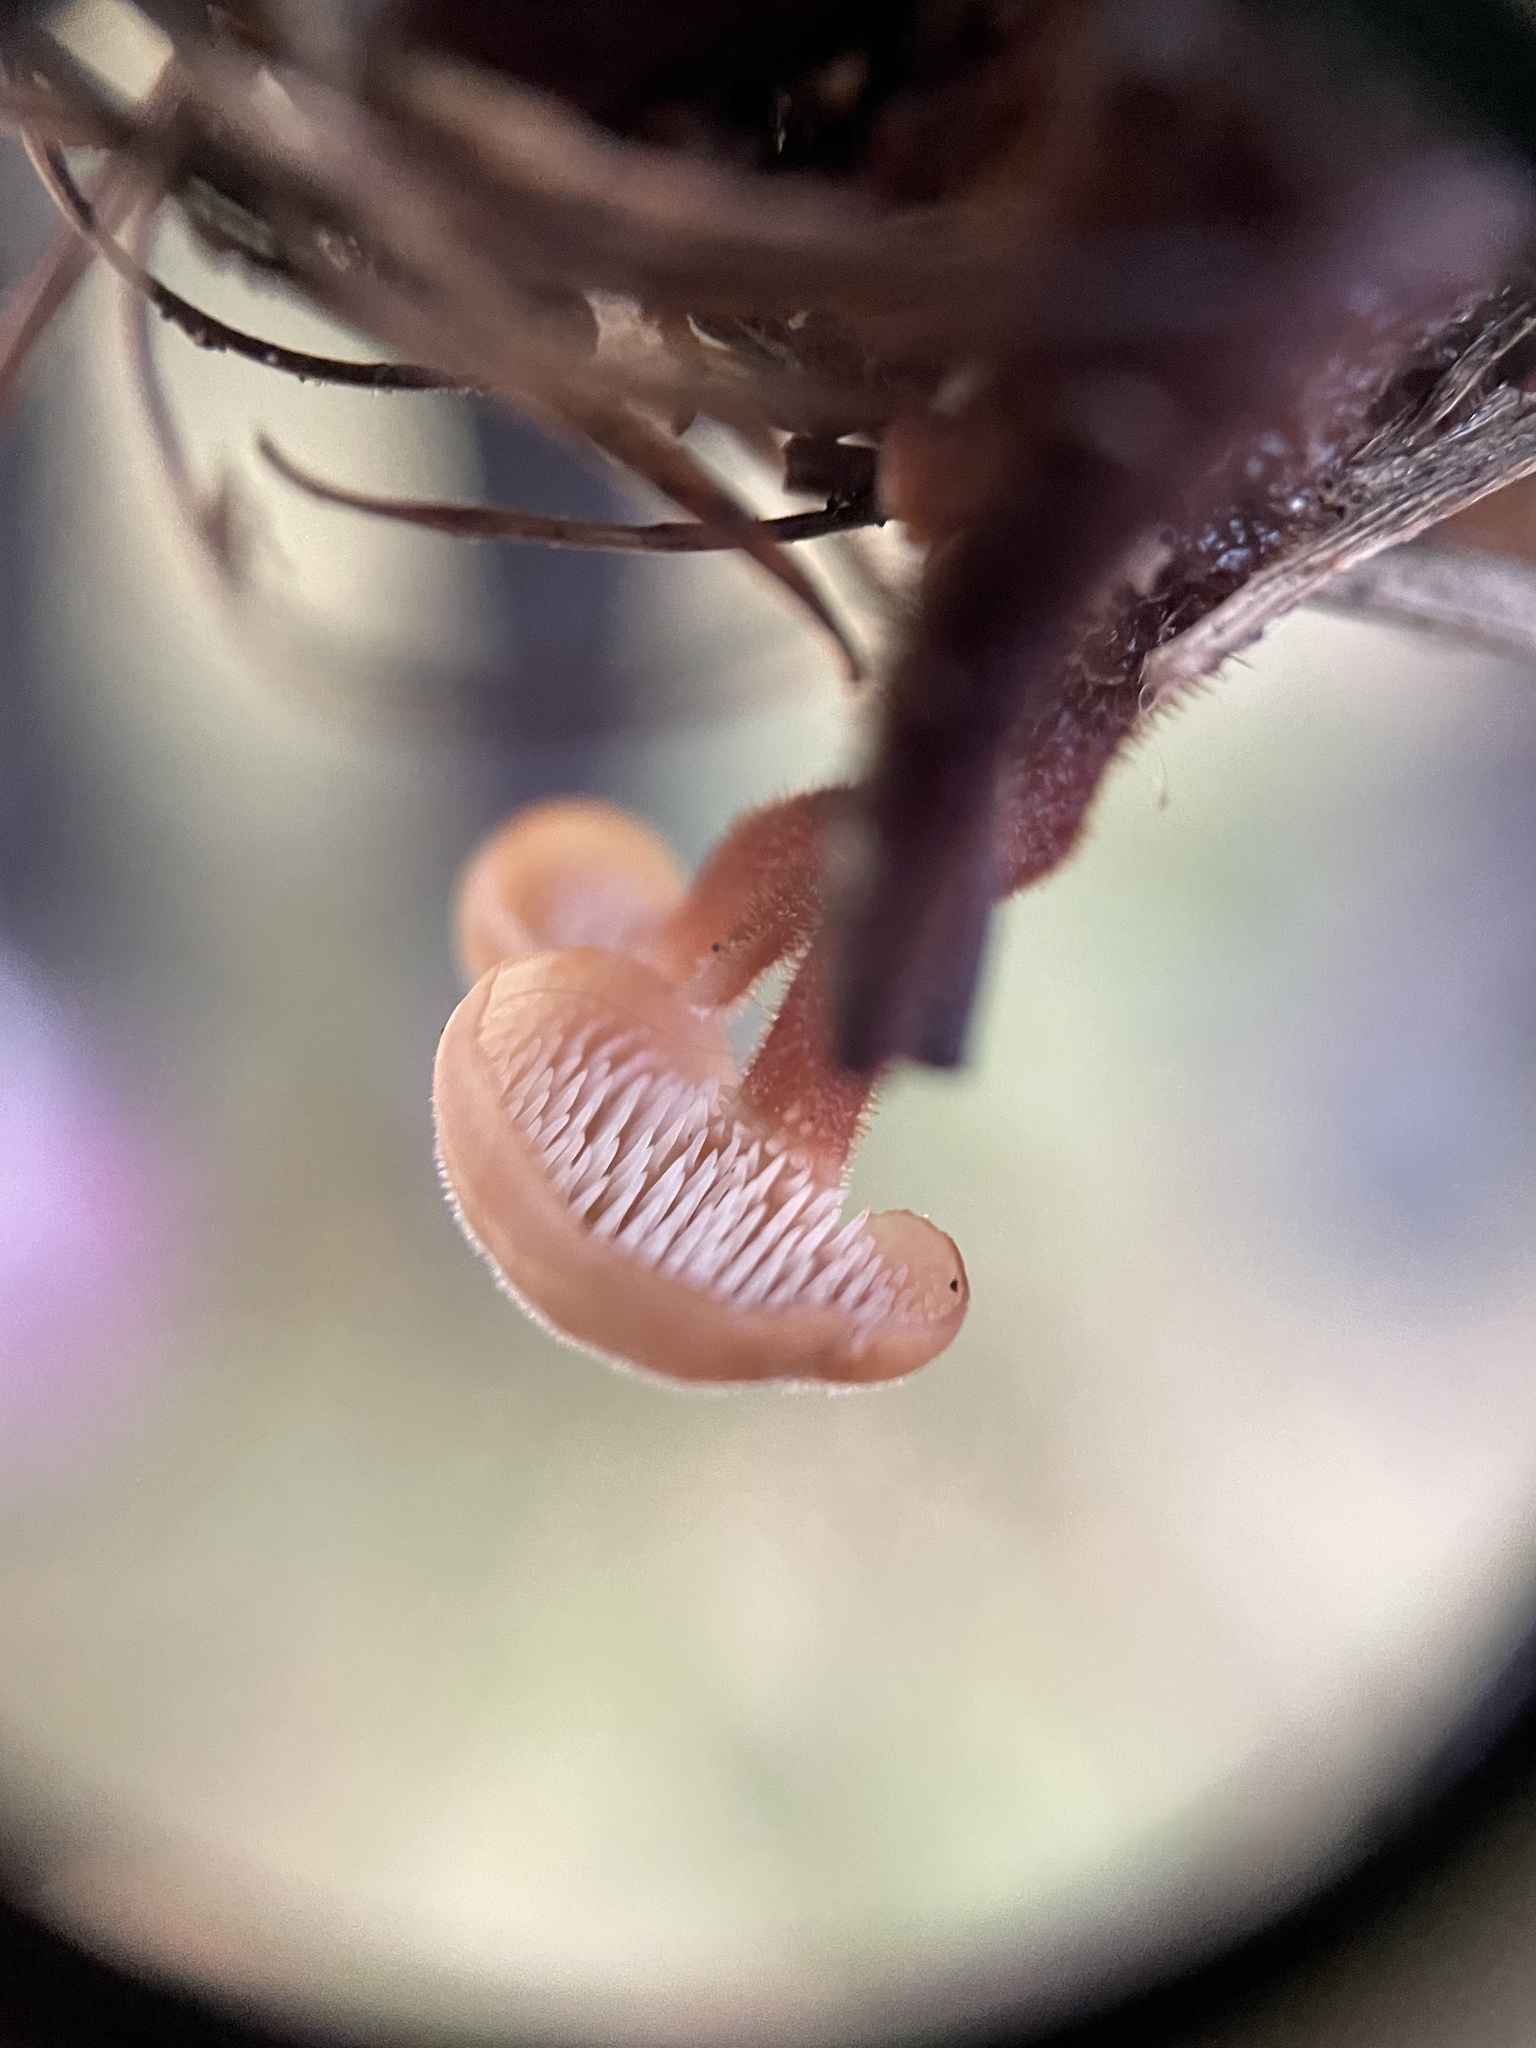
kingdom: Fungi
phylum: Basidiomycota
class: Agaricomycetes
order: Russulales
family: Auriscalpiaceae
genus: Auriscalpium
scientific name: Auriscalpium vulgare
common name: Earpick fungus
